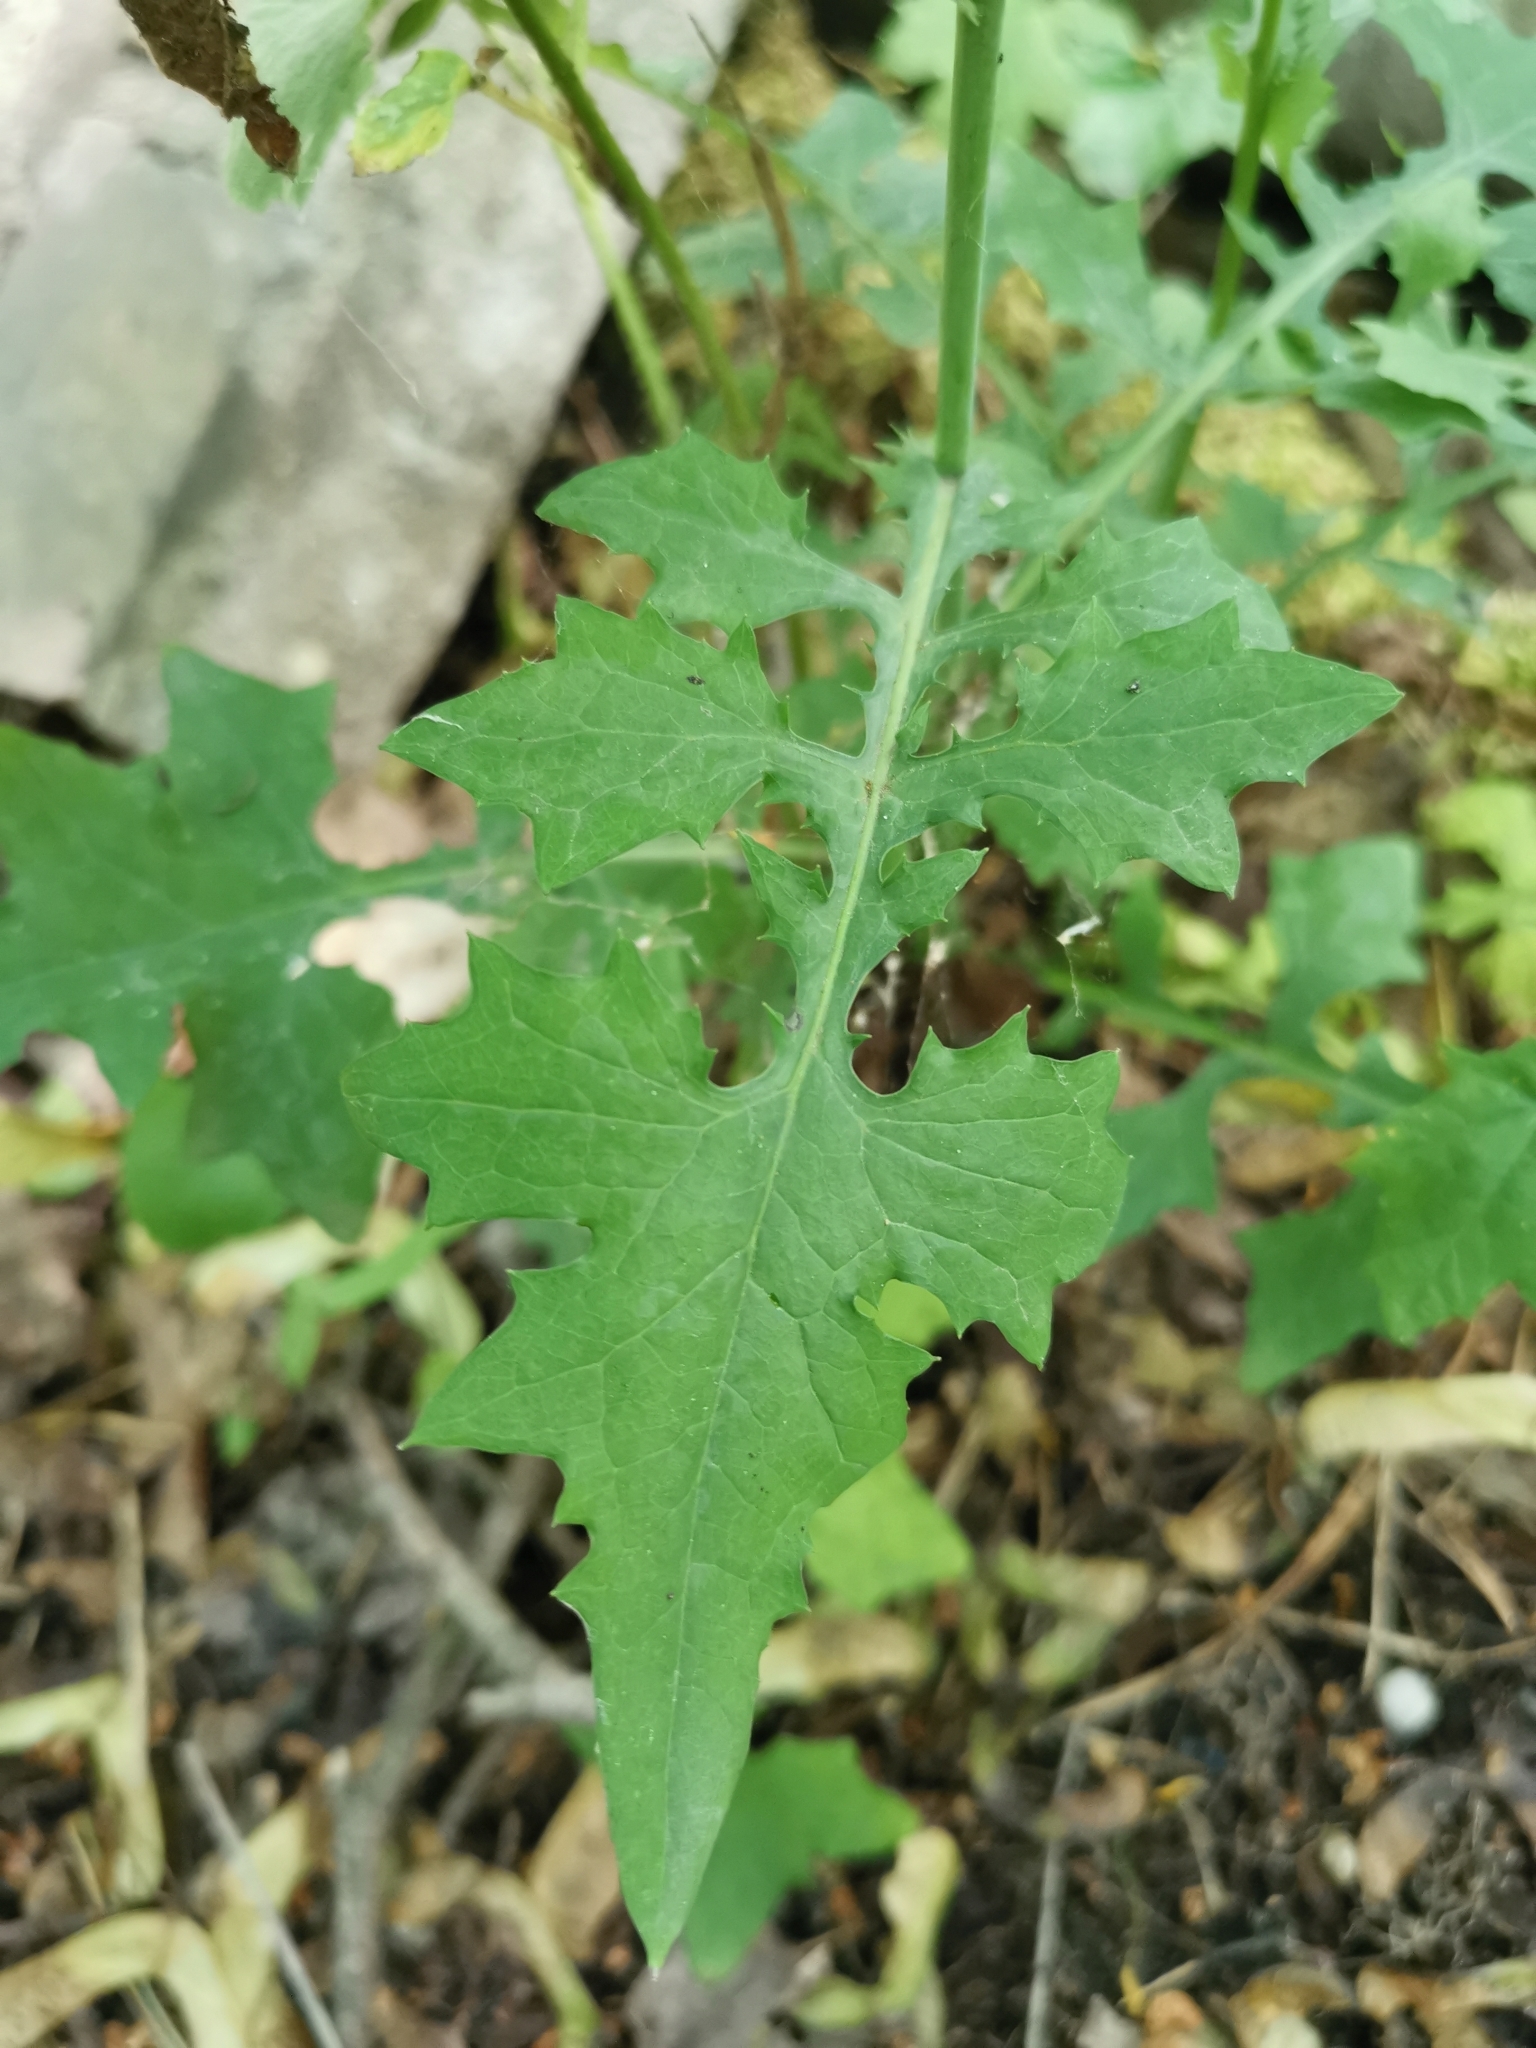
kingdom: Plantae
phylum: Tracheophyta
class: Magnoliopsida
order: Asterales
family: Asteraceae
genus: Mycelis
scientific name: Mycelis muralis
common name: Wall lettuce
